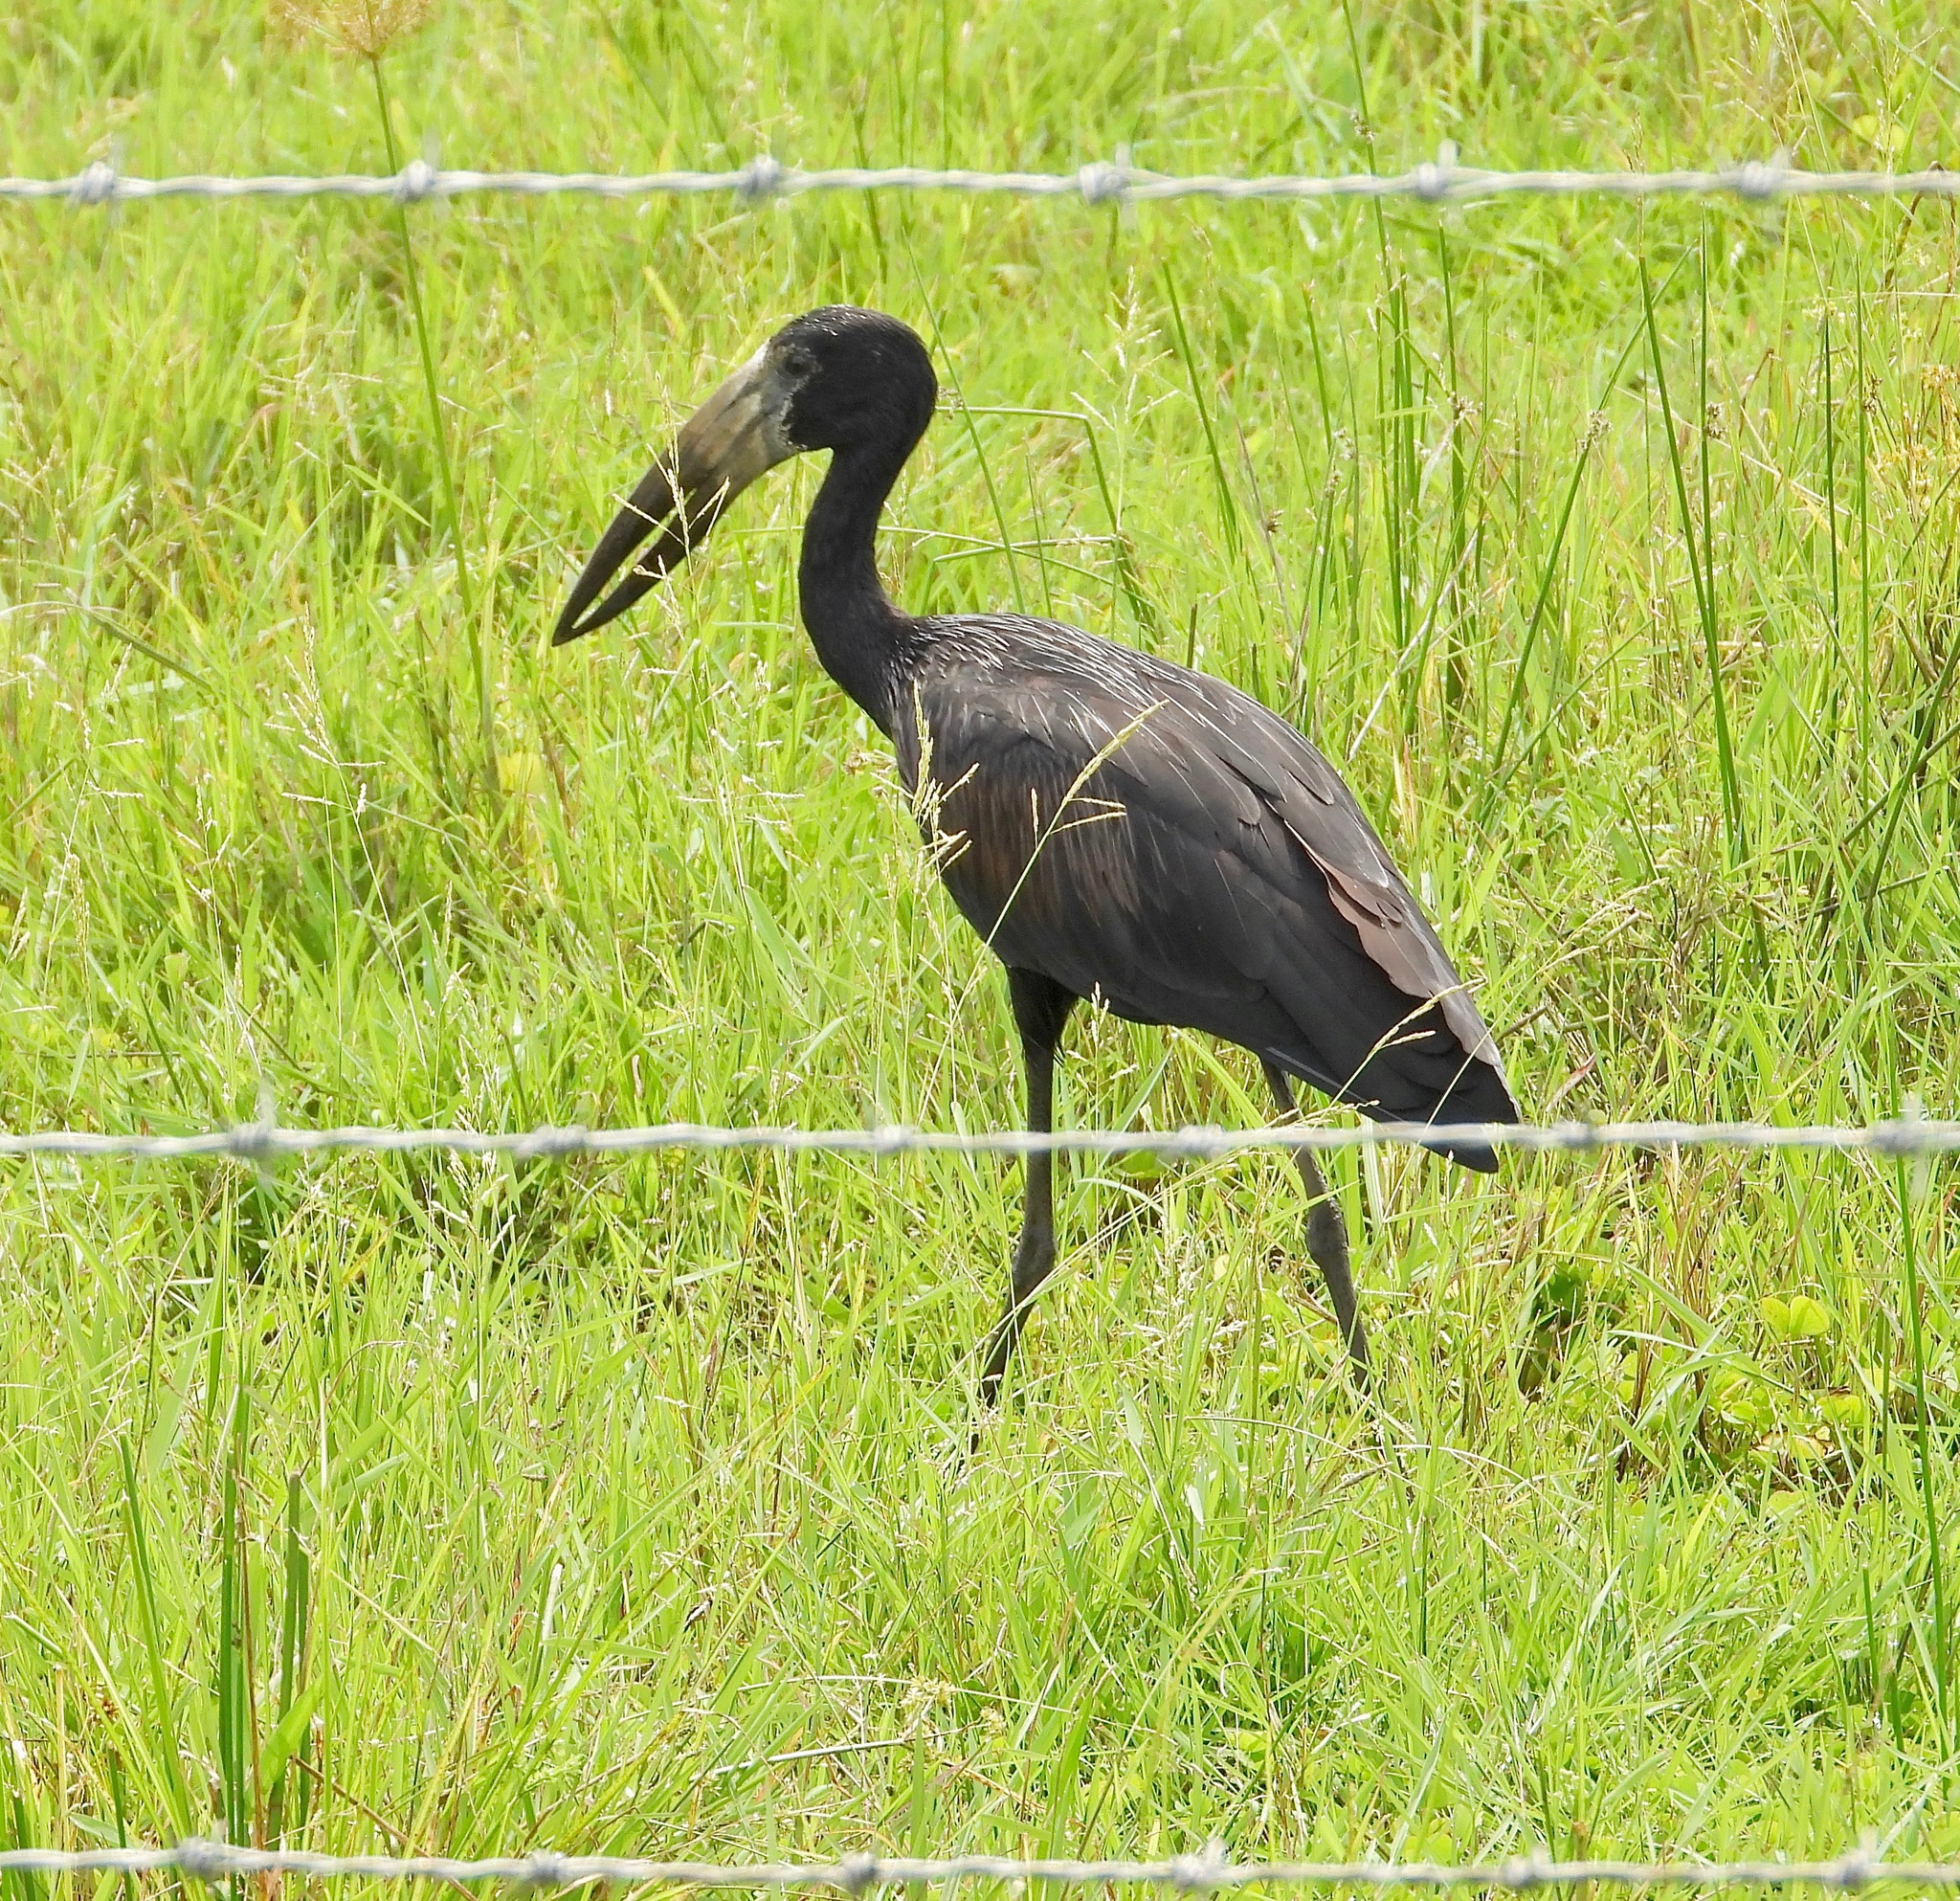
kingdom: Animalia
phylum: Chordata
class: Aves
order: Ciconiiformes
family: Ciconiidae
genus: Anastomus
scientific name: Anastomus lamelligerus
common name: African openbill
